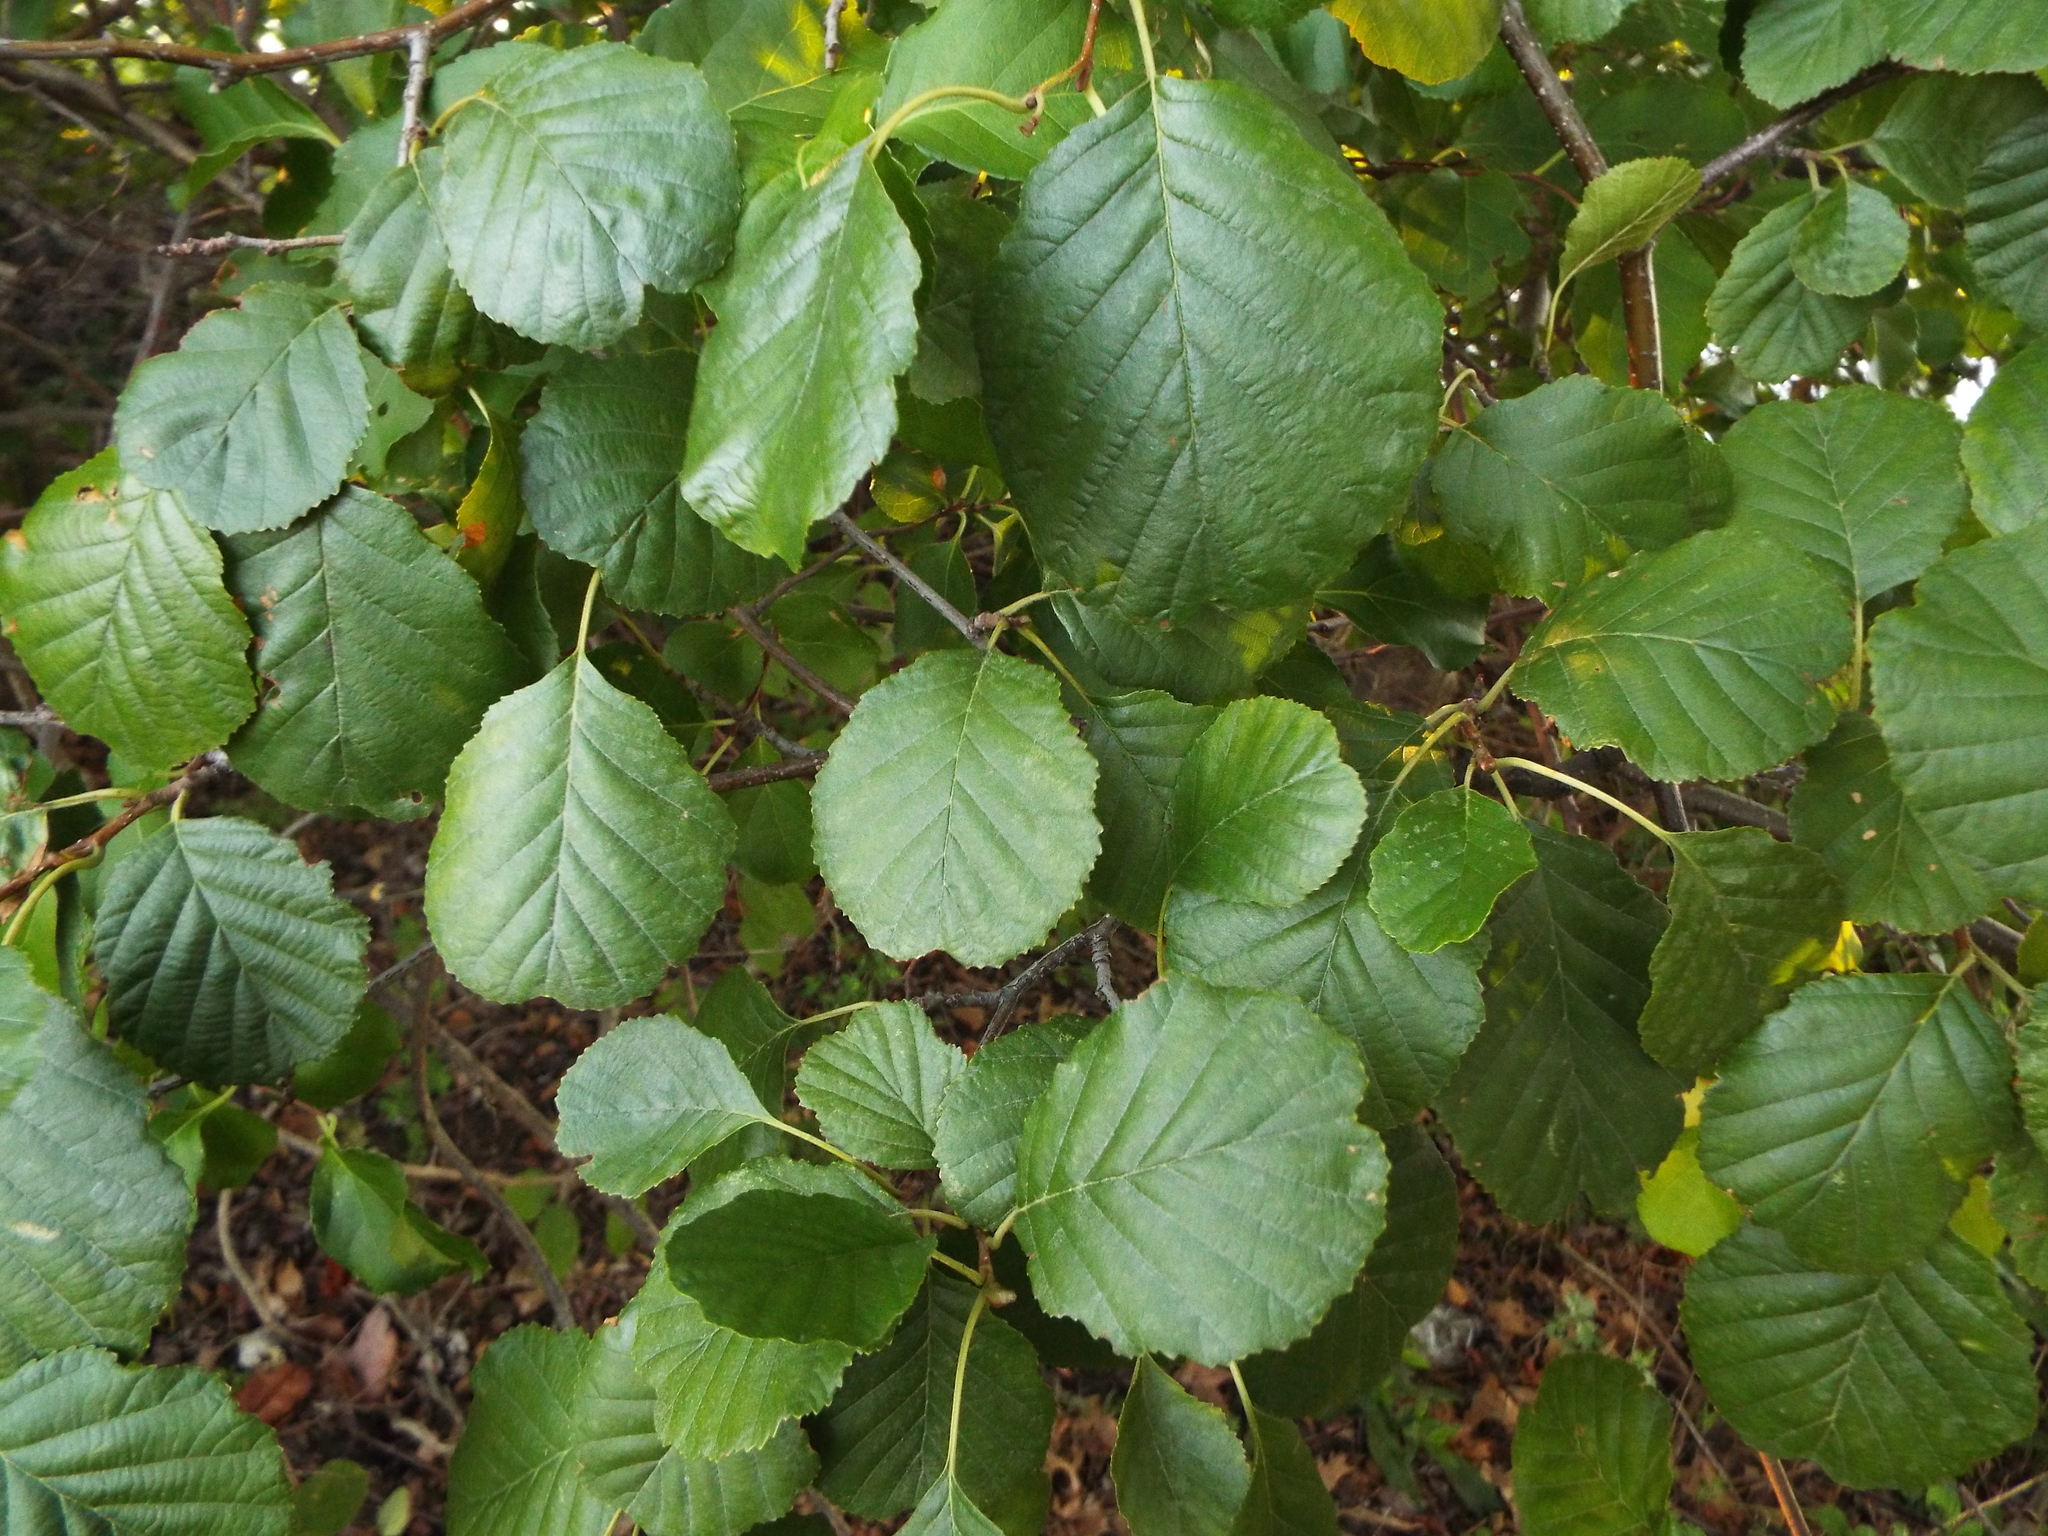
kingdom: Plantae
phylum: Tracheophyta
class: Magnoliopsida
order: Fagales
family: Betulaceae
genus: Alnus
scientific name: Alnus glutinosa
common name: Black alder
